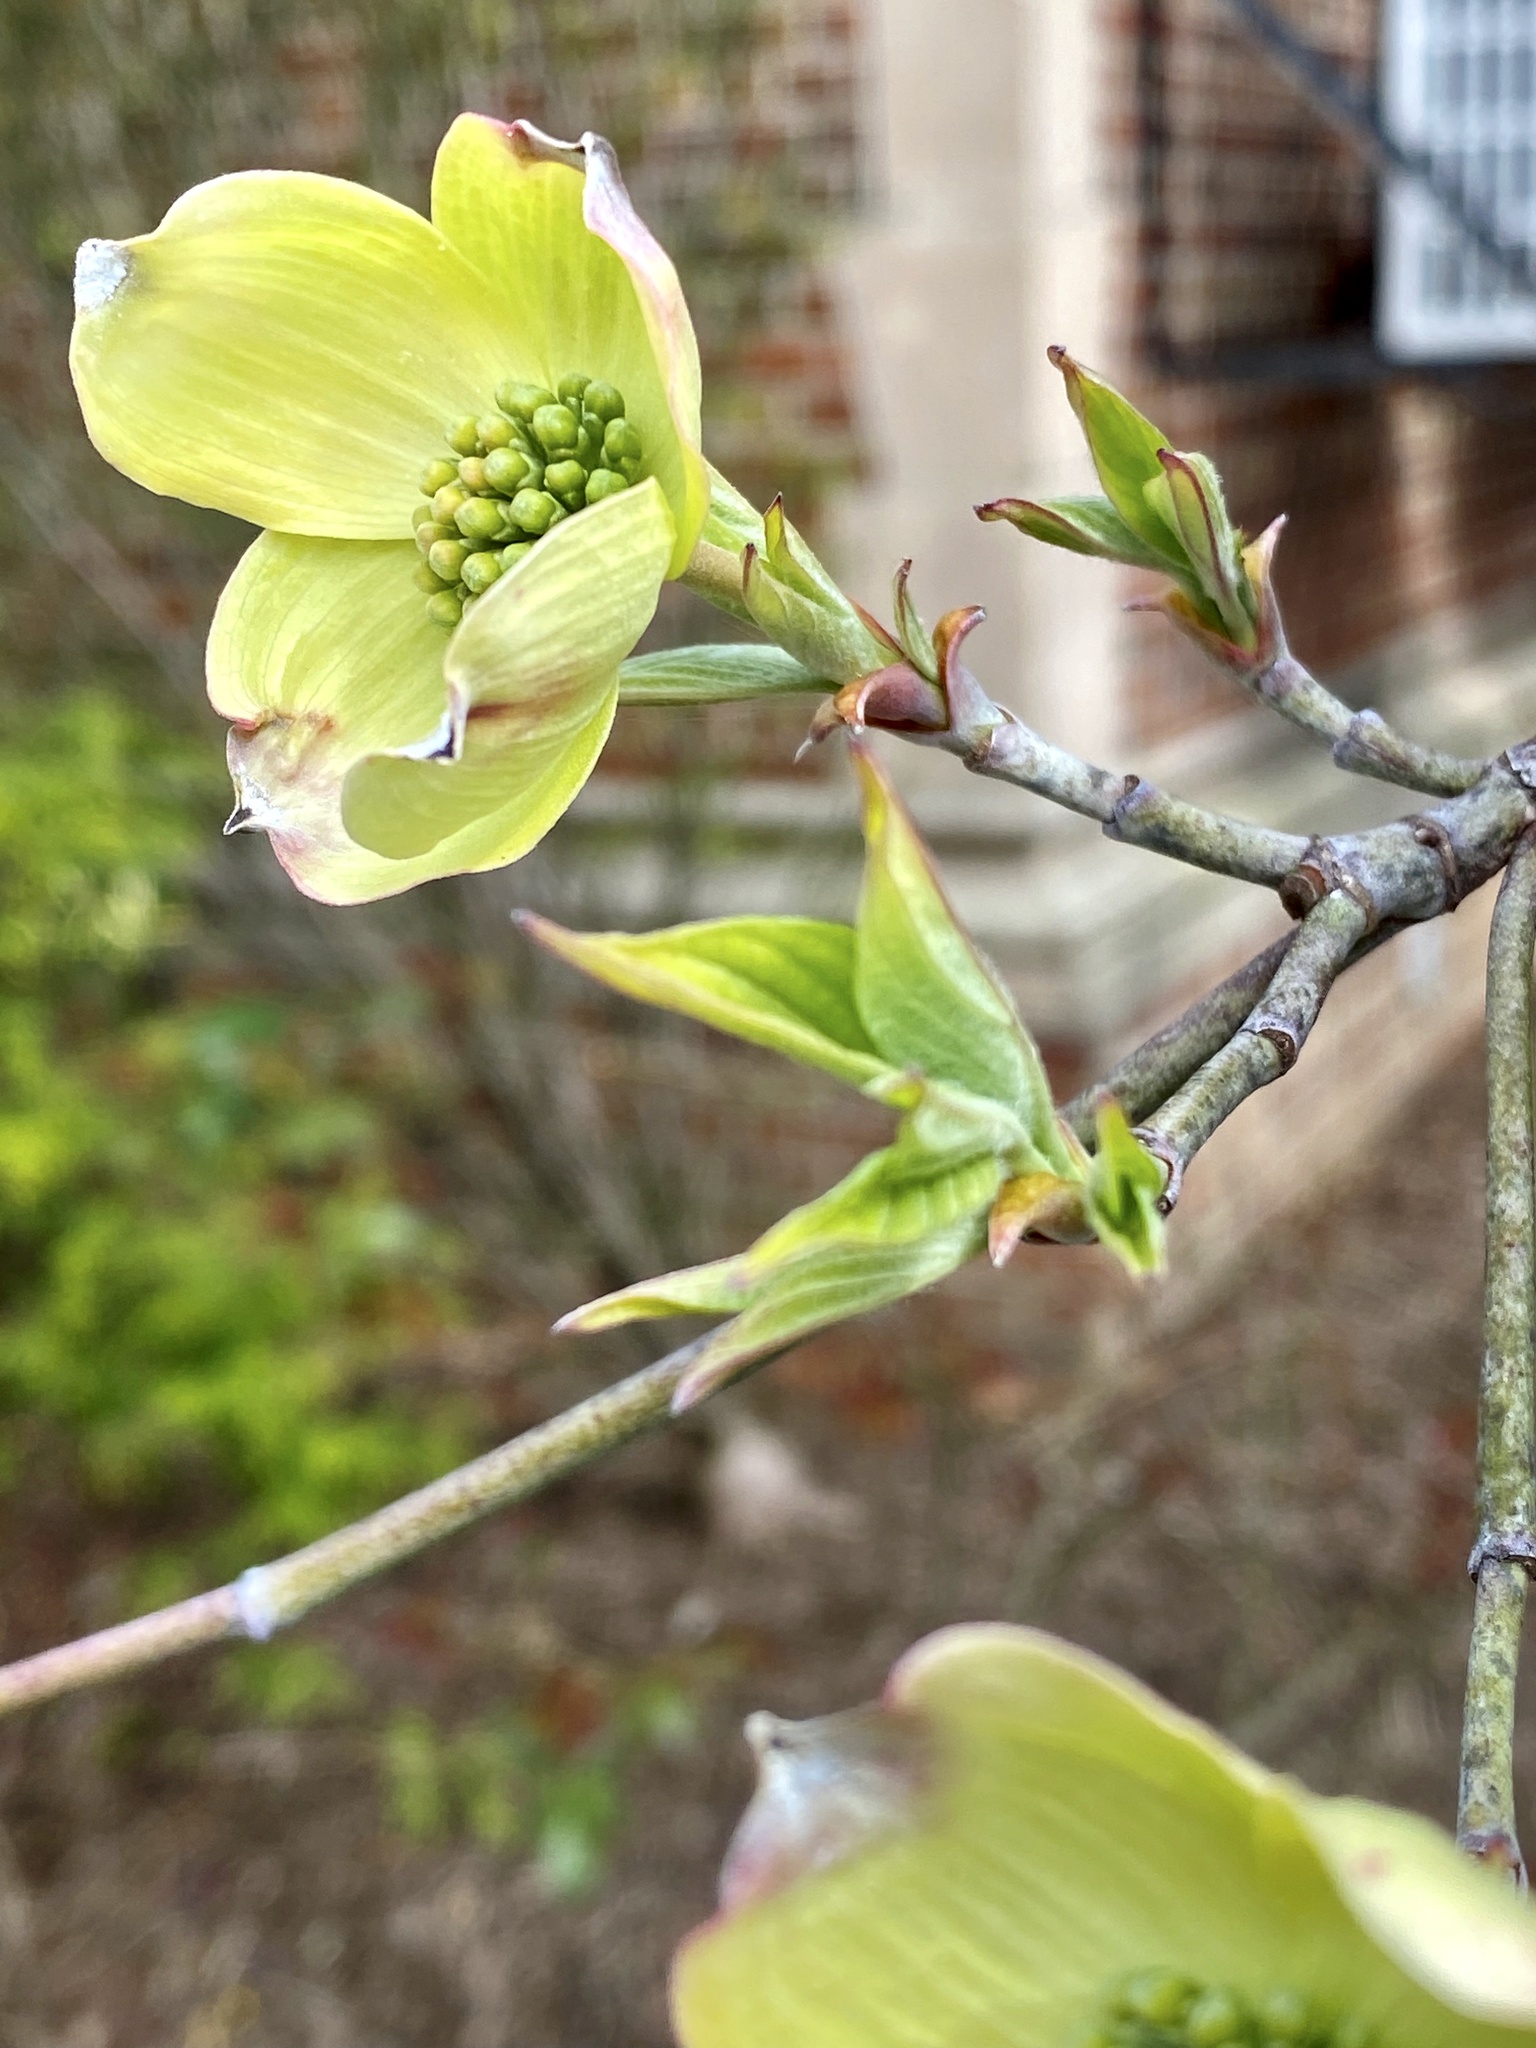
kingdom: Plantae
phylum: Tracheophyta
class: Magnoliopsida
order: Cornales
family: Cornaceae
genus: Cornus
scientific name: Cornus florida
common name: Flowering dogwood
